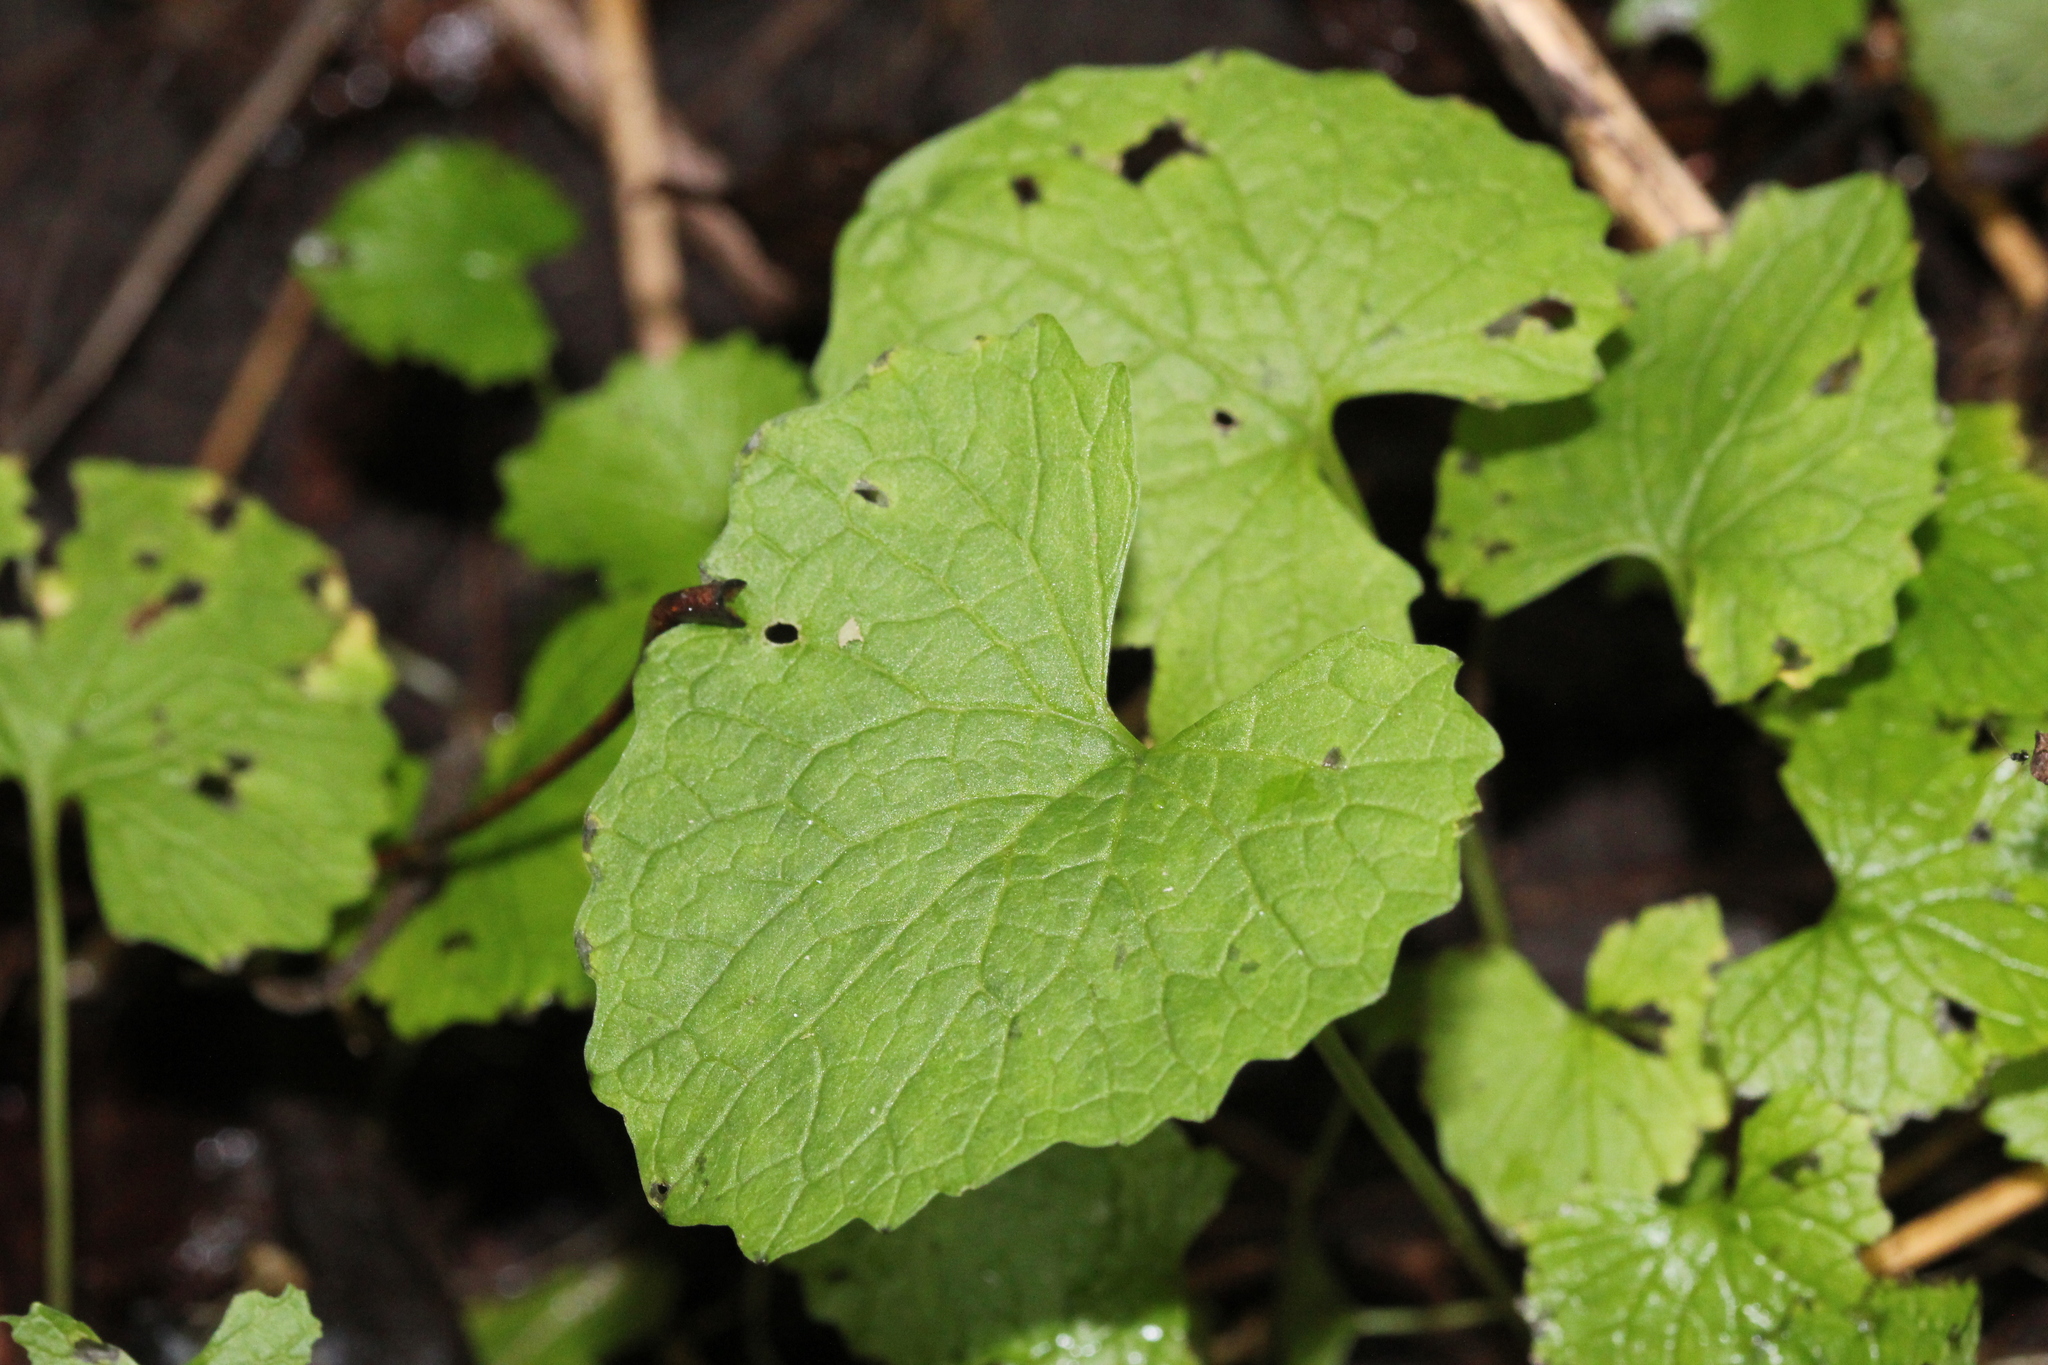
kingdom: Plantae
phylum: Tracheophyta
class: Magnoliopsida
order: Brassicales
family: Brassicaceae
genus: Alliaria
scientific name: Alliaria petiolata
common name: Garlic mustard
